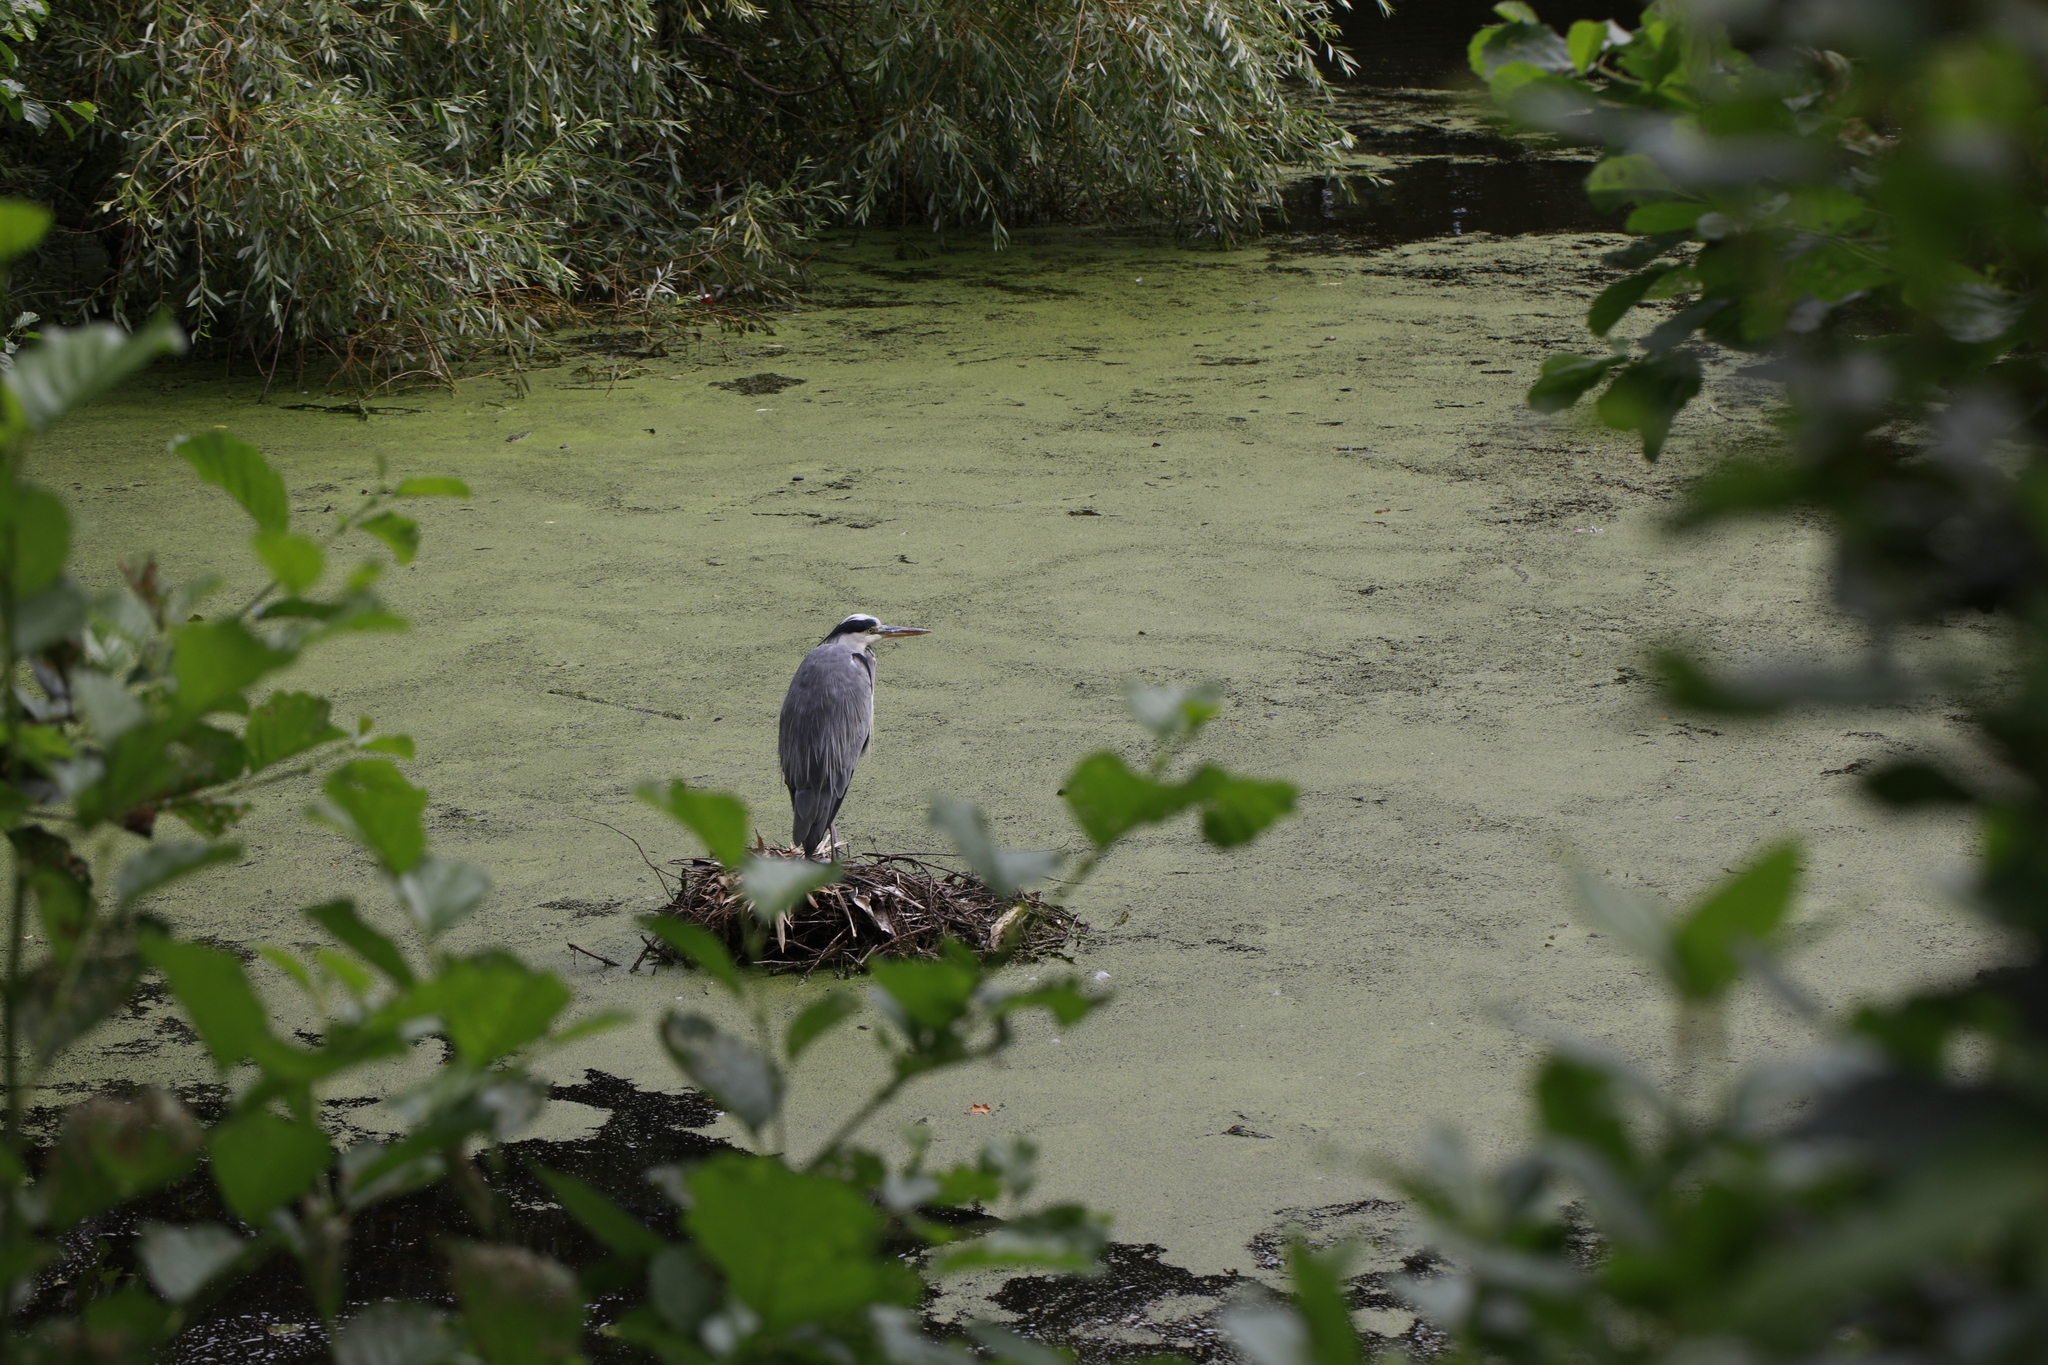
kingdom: Animalia
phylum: Chordata
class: Aves
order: Pelecaniformes
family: Ardeidae
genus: Ardea
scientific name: Ardea cinerea
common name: Grey heron
